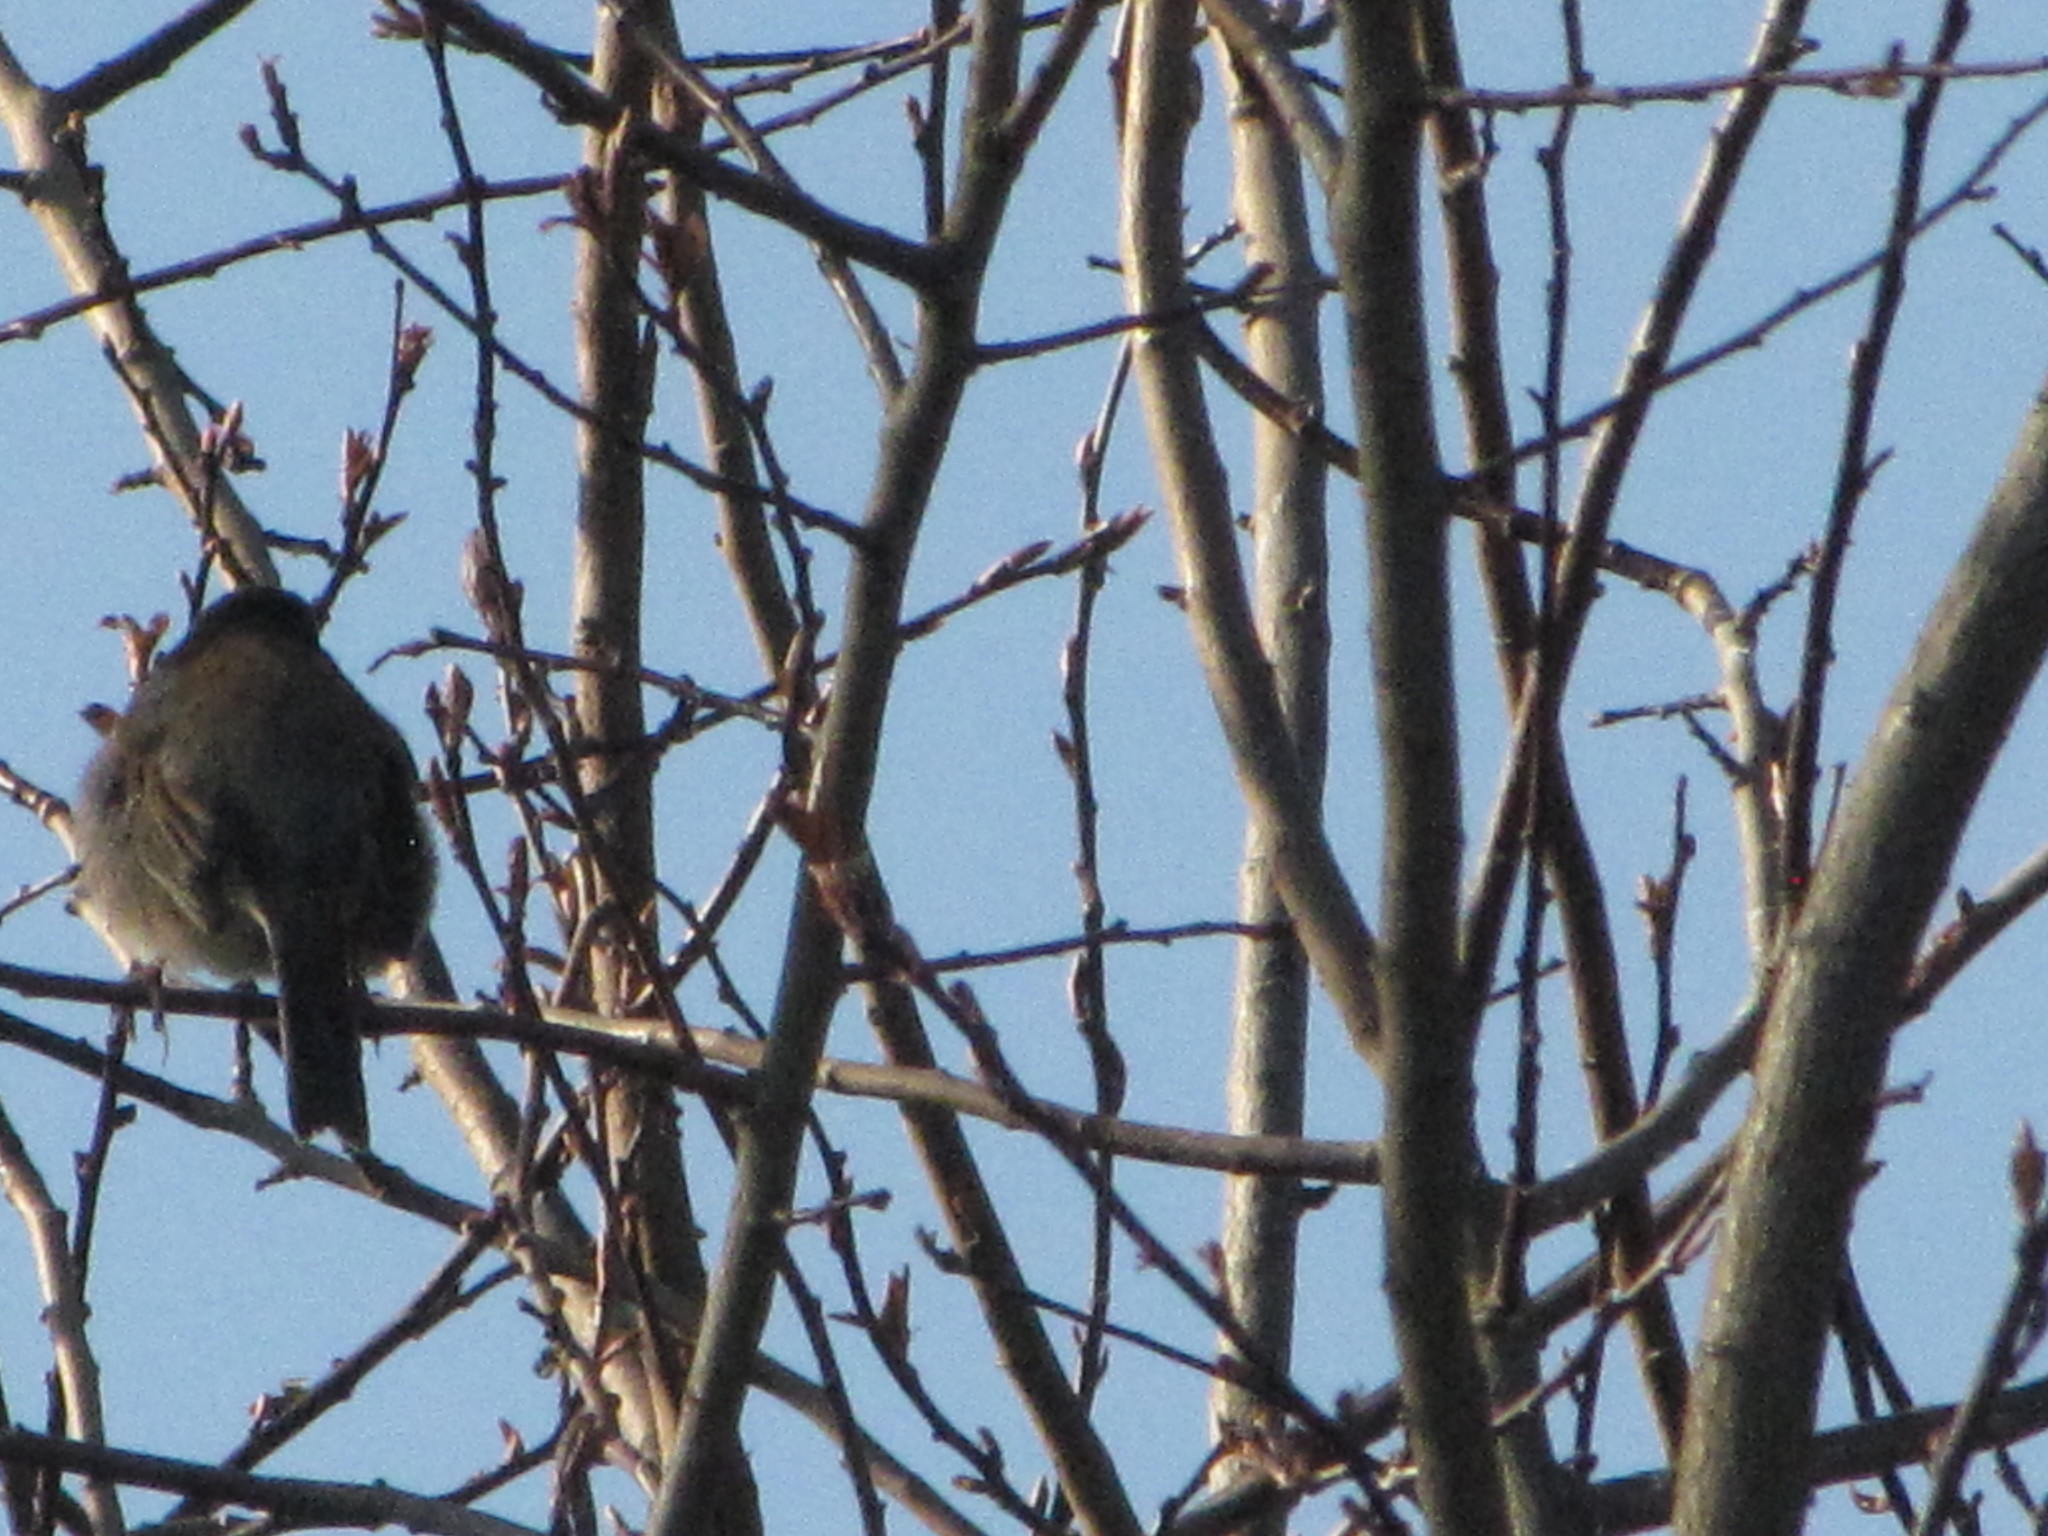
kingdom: Animalia
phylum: Chordata
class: Aves
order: Passeriformes
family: Passerellidae
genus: Junco
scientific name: Junco hyemalis
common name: Dark-eyed junco
